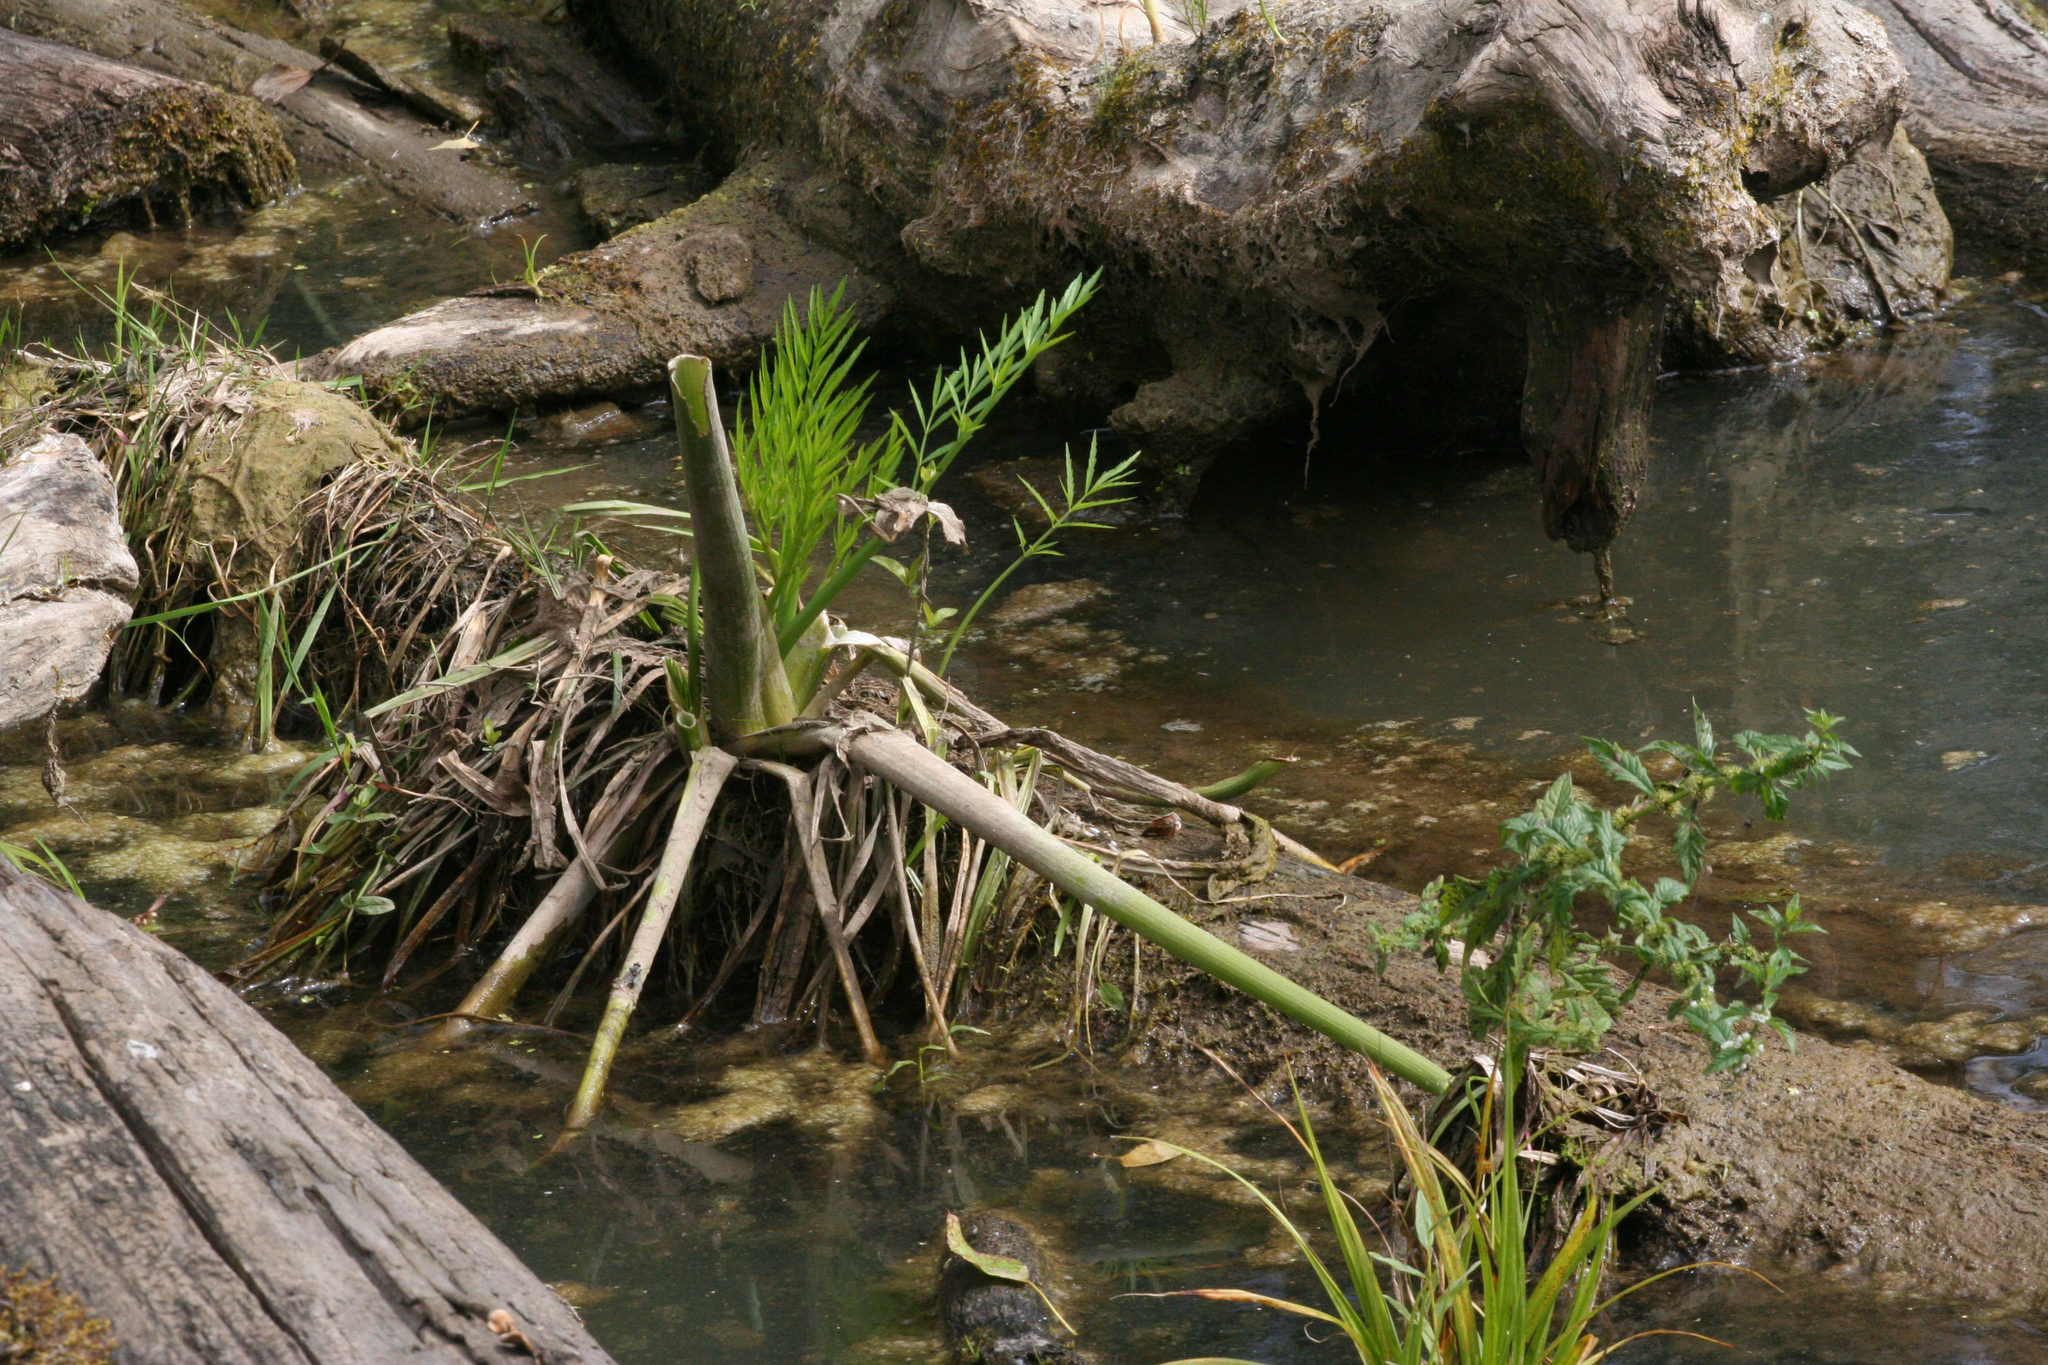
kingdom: Plantae
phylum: Tracheophyta
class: Magnoliopsida
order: Apiales
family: Apiaceae
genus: Cicuta
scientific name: Cicuta virosa
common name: Cowbane
